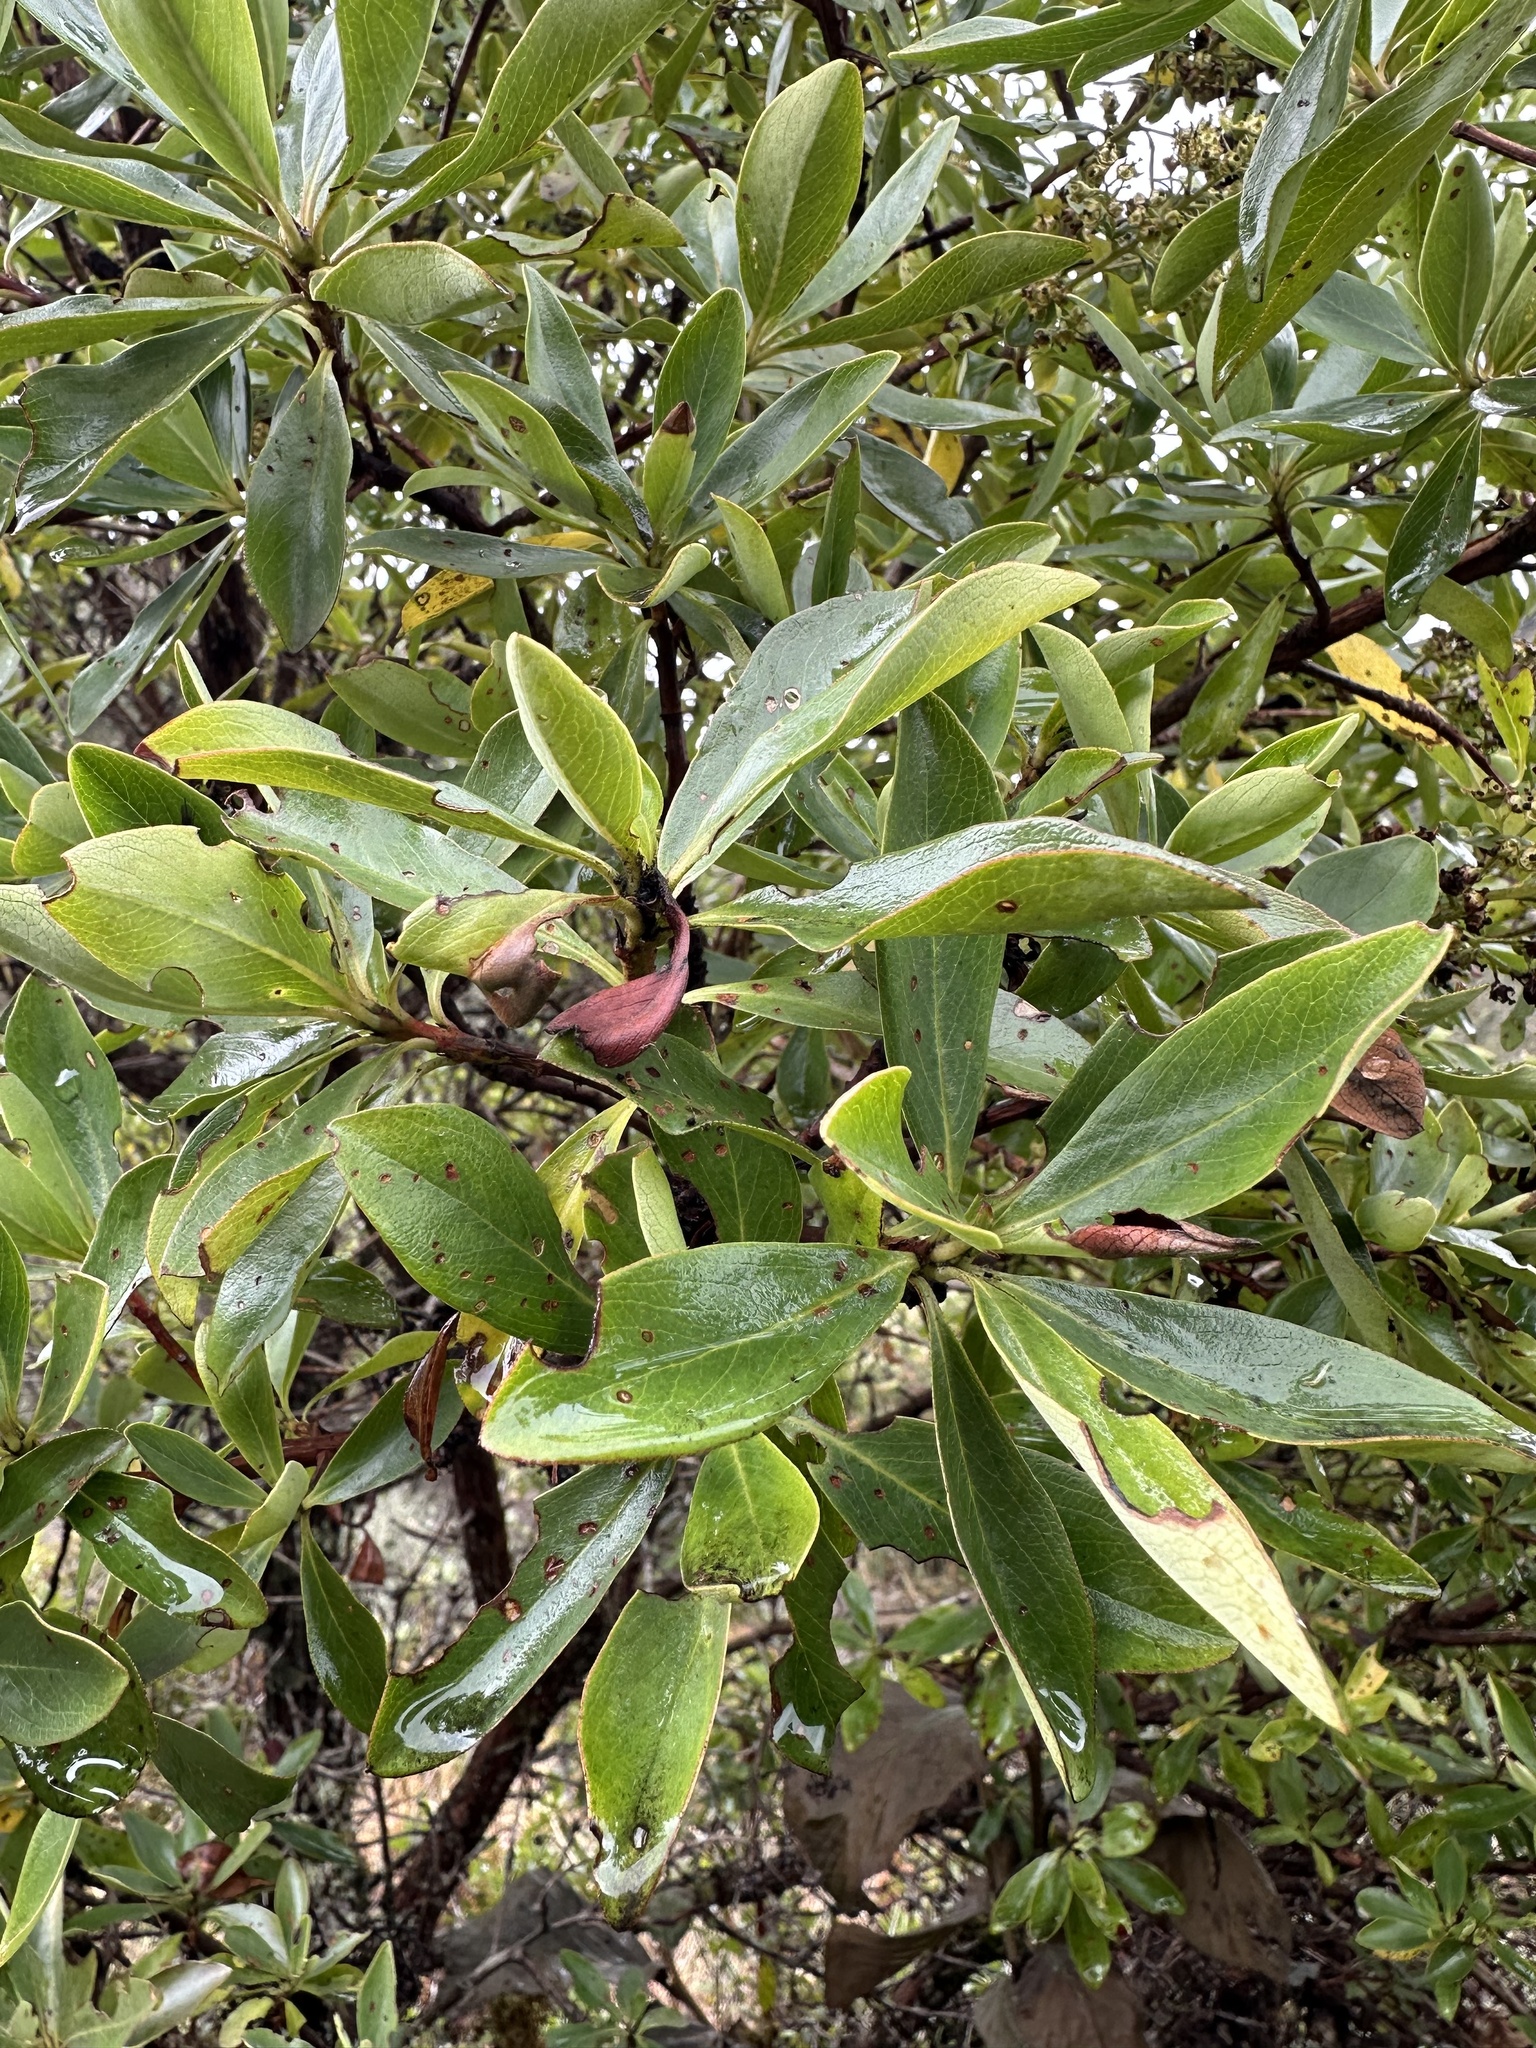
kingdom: Plantae
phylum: Tracheophyta
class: Magnoliopsida
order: Escalloniales
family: Escalloniaceae
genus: Escallonia
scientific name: Escallonia discolor
